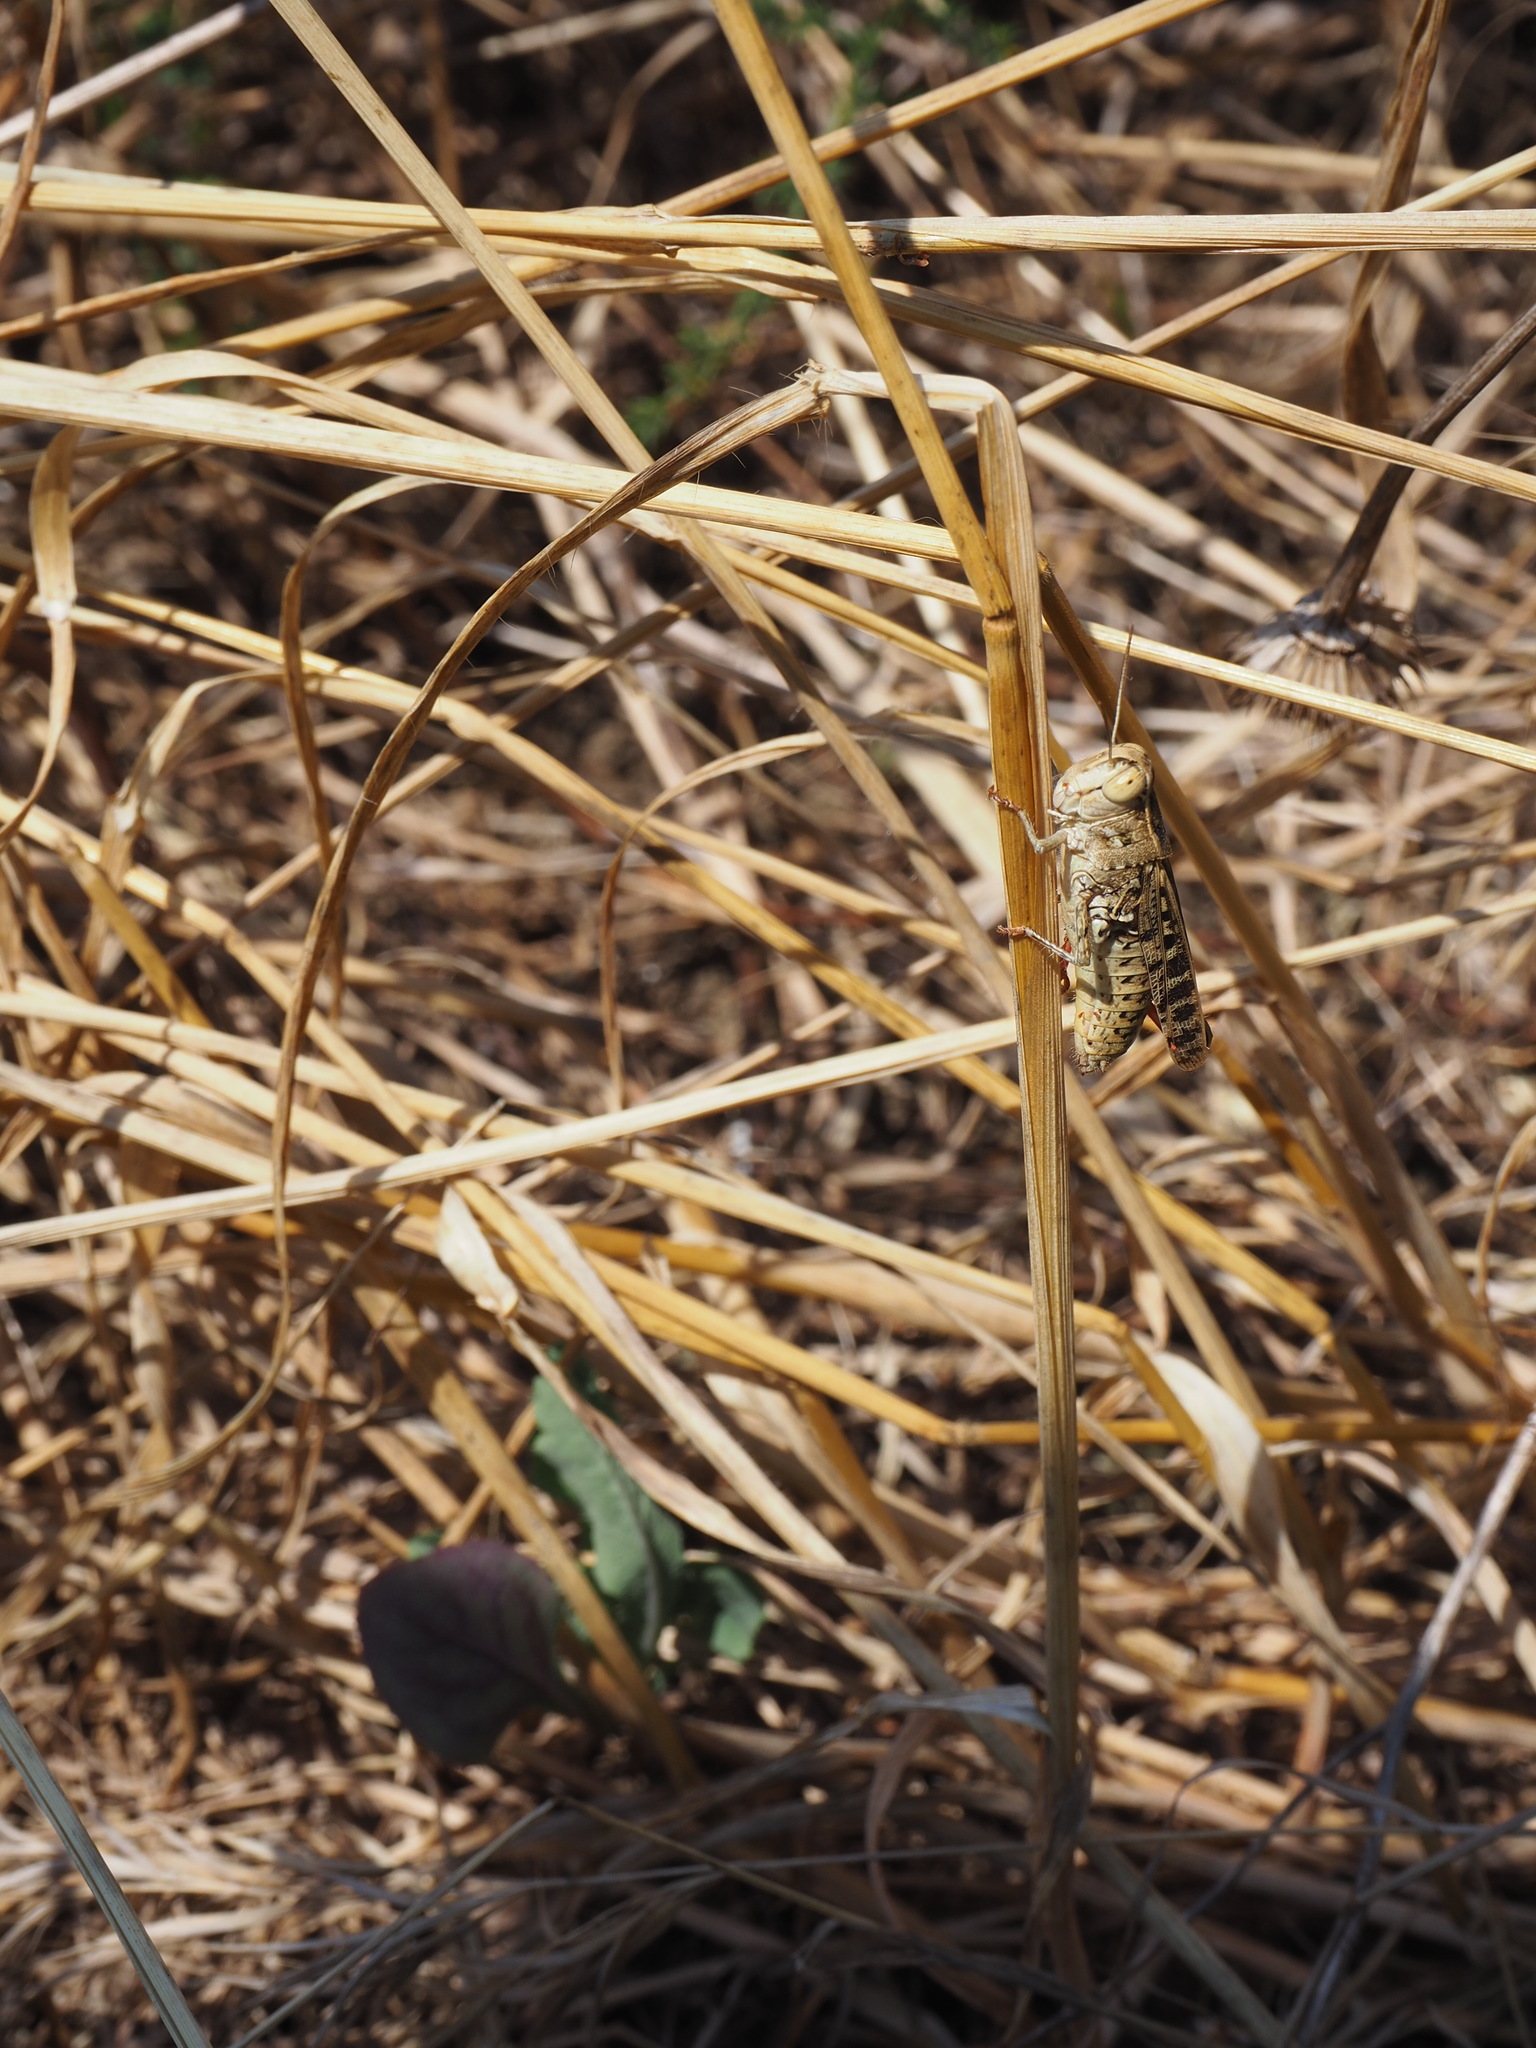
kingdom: Animalia
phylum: Arthropoda
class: Insecta
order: Orthoptera
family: Acrididae
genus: Calliptamus
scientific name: Calliptamus italicus
